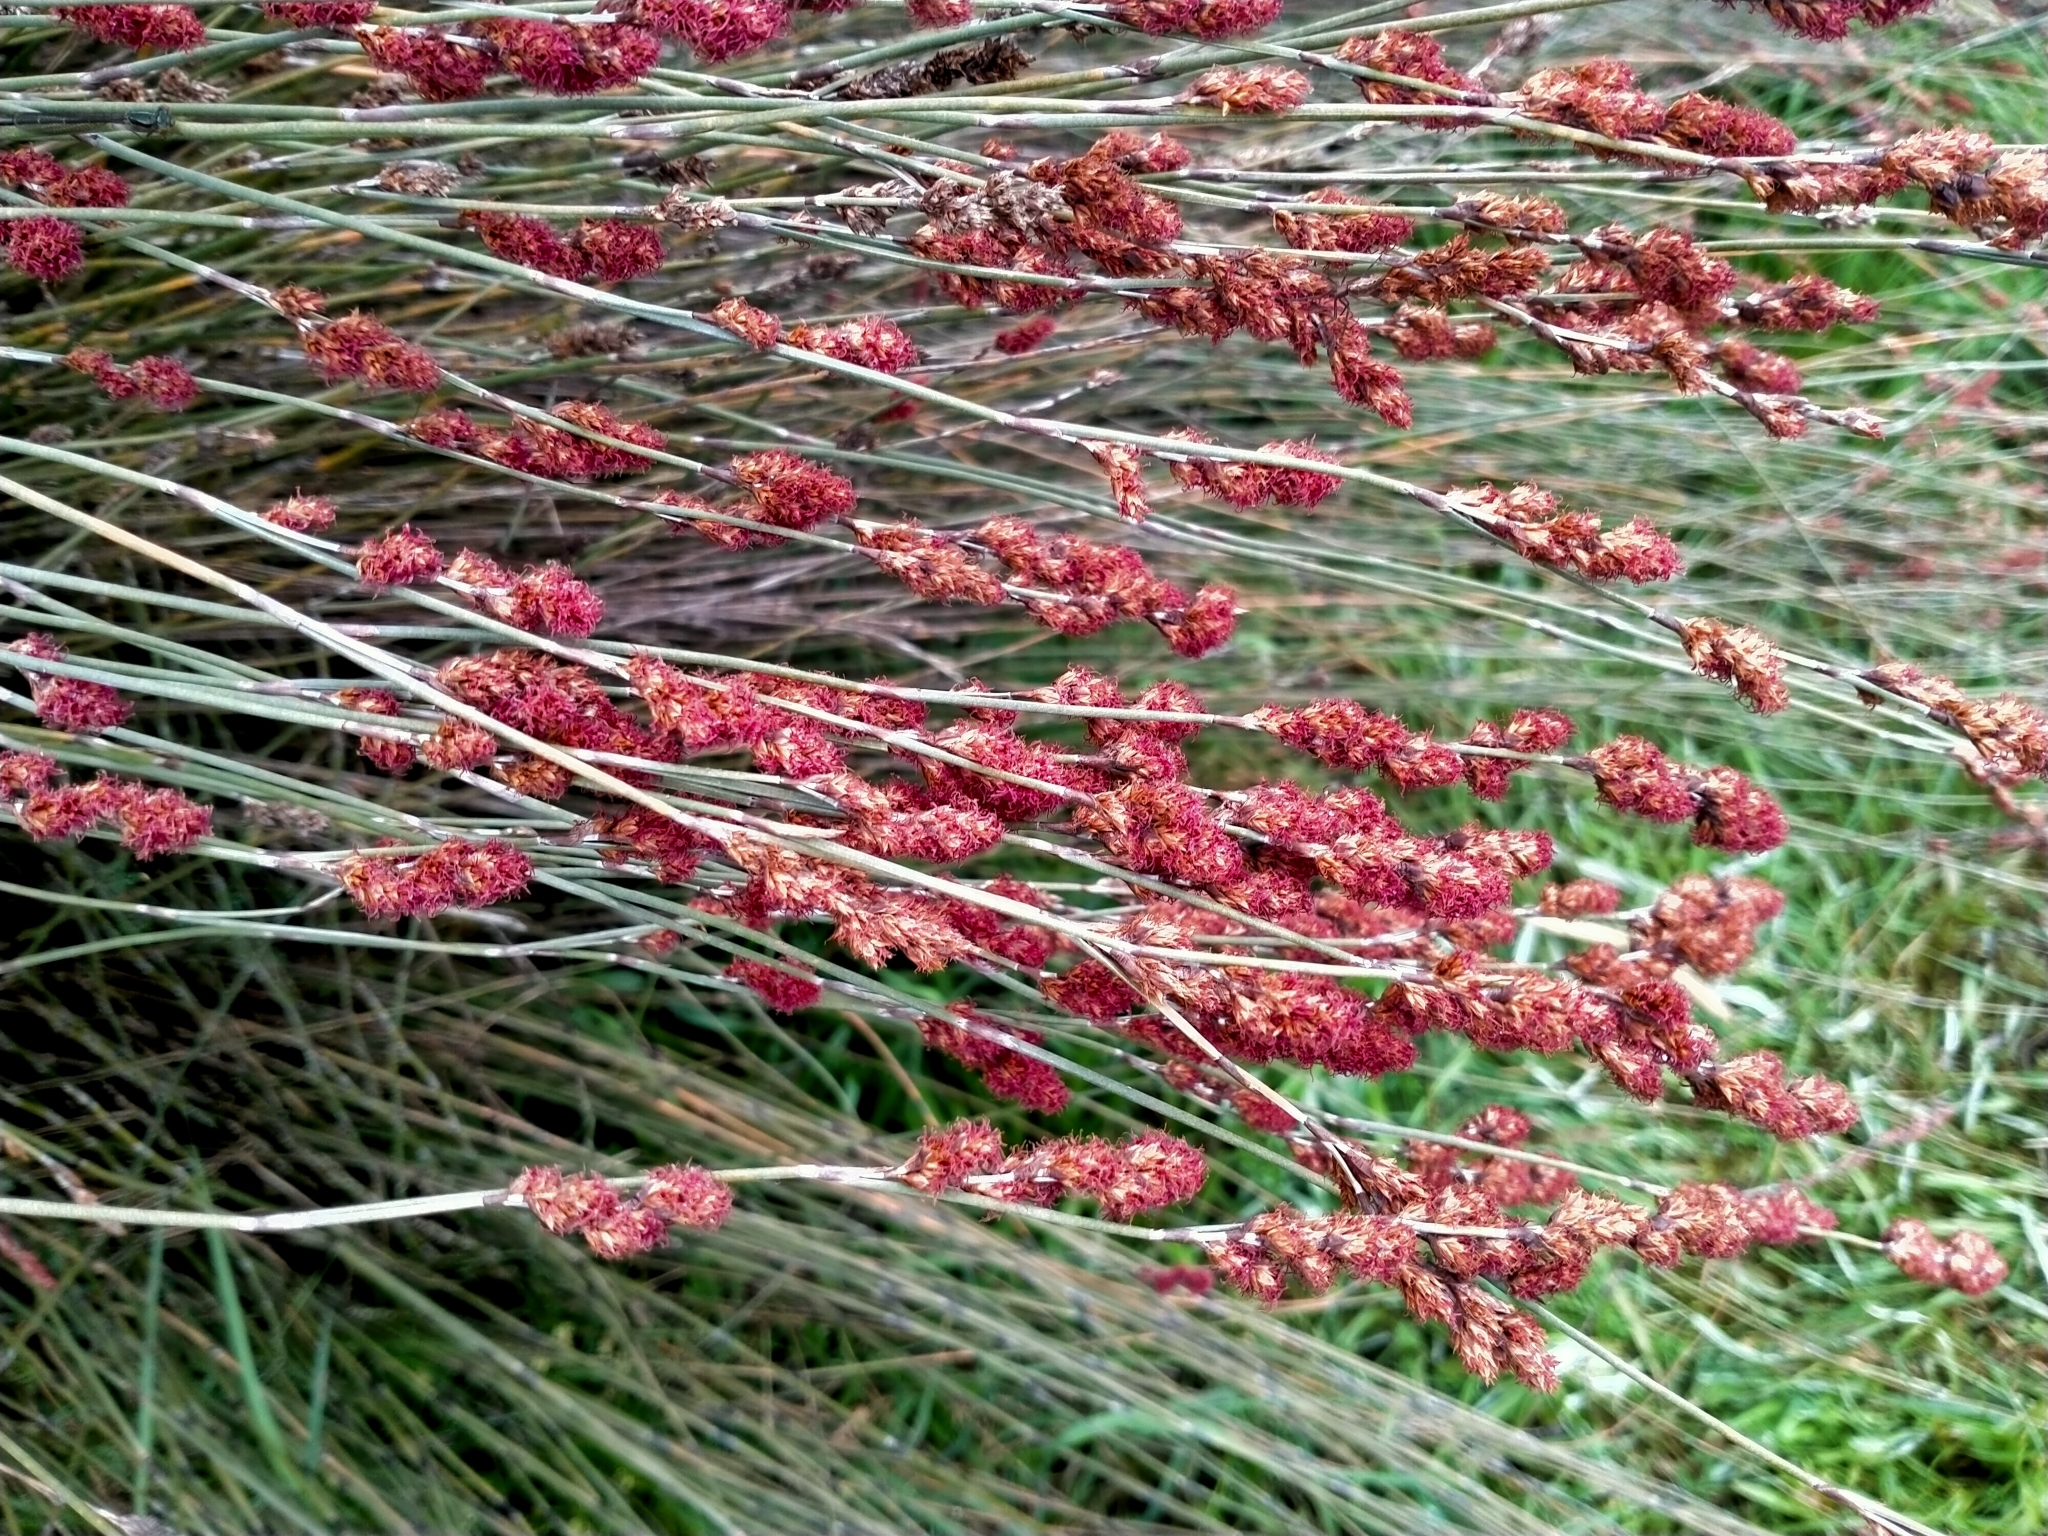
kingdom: Plantae
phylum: Tracheophyta
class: Liliopsida
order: Poales
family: Restionaceae
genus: Apodasmia
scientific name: Apodasmia similis
